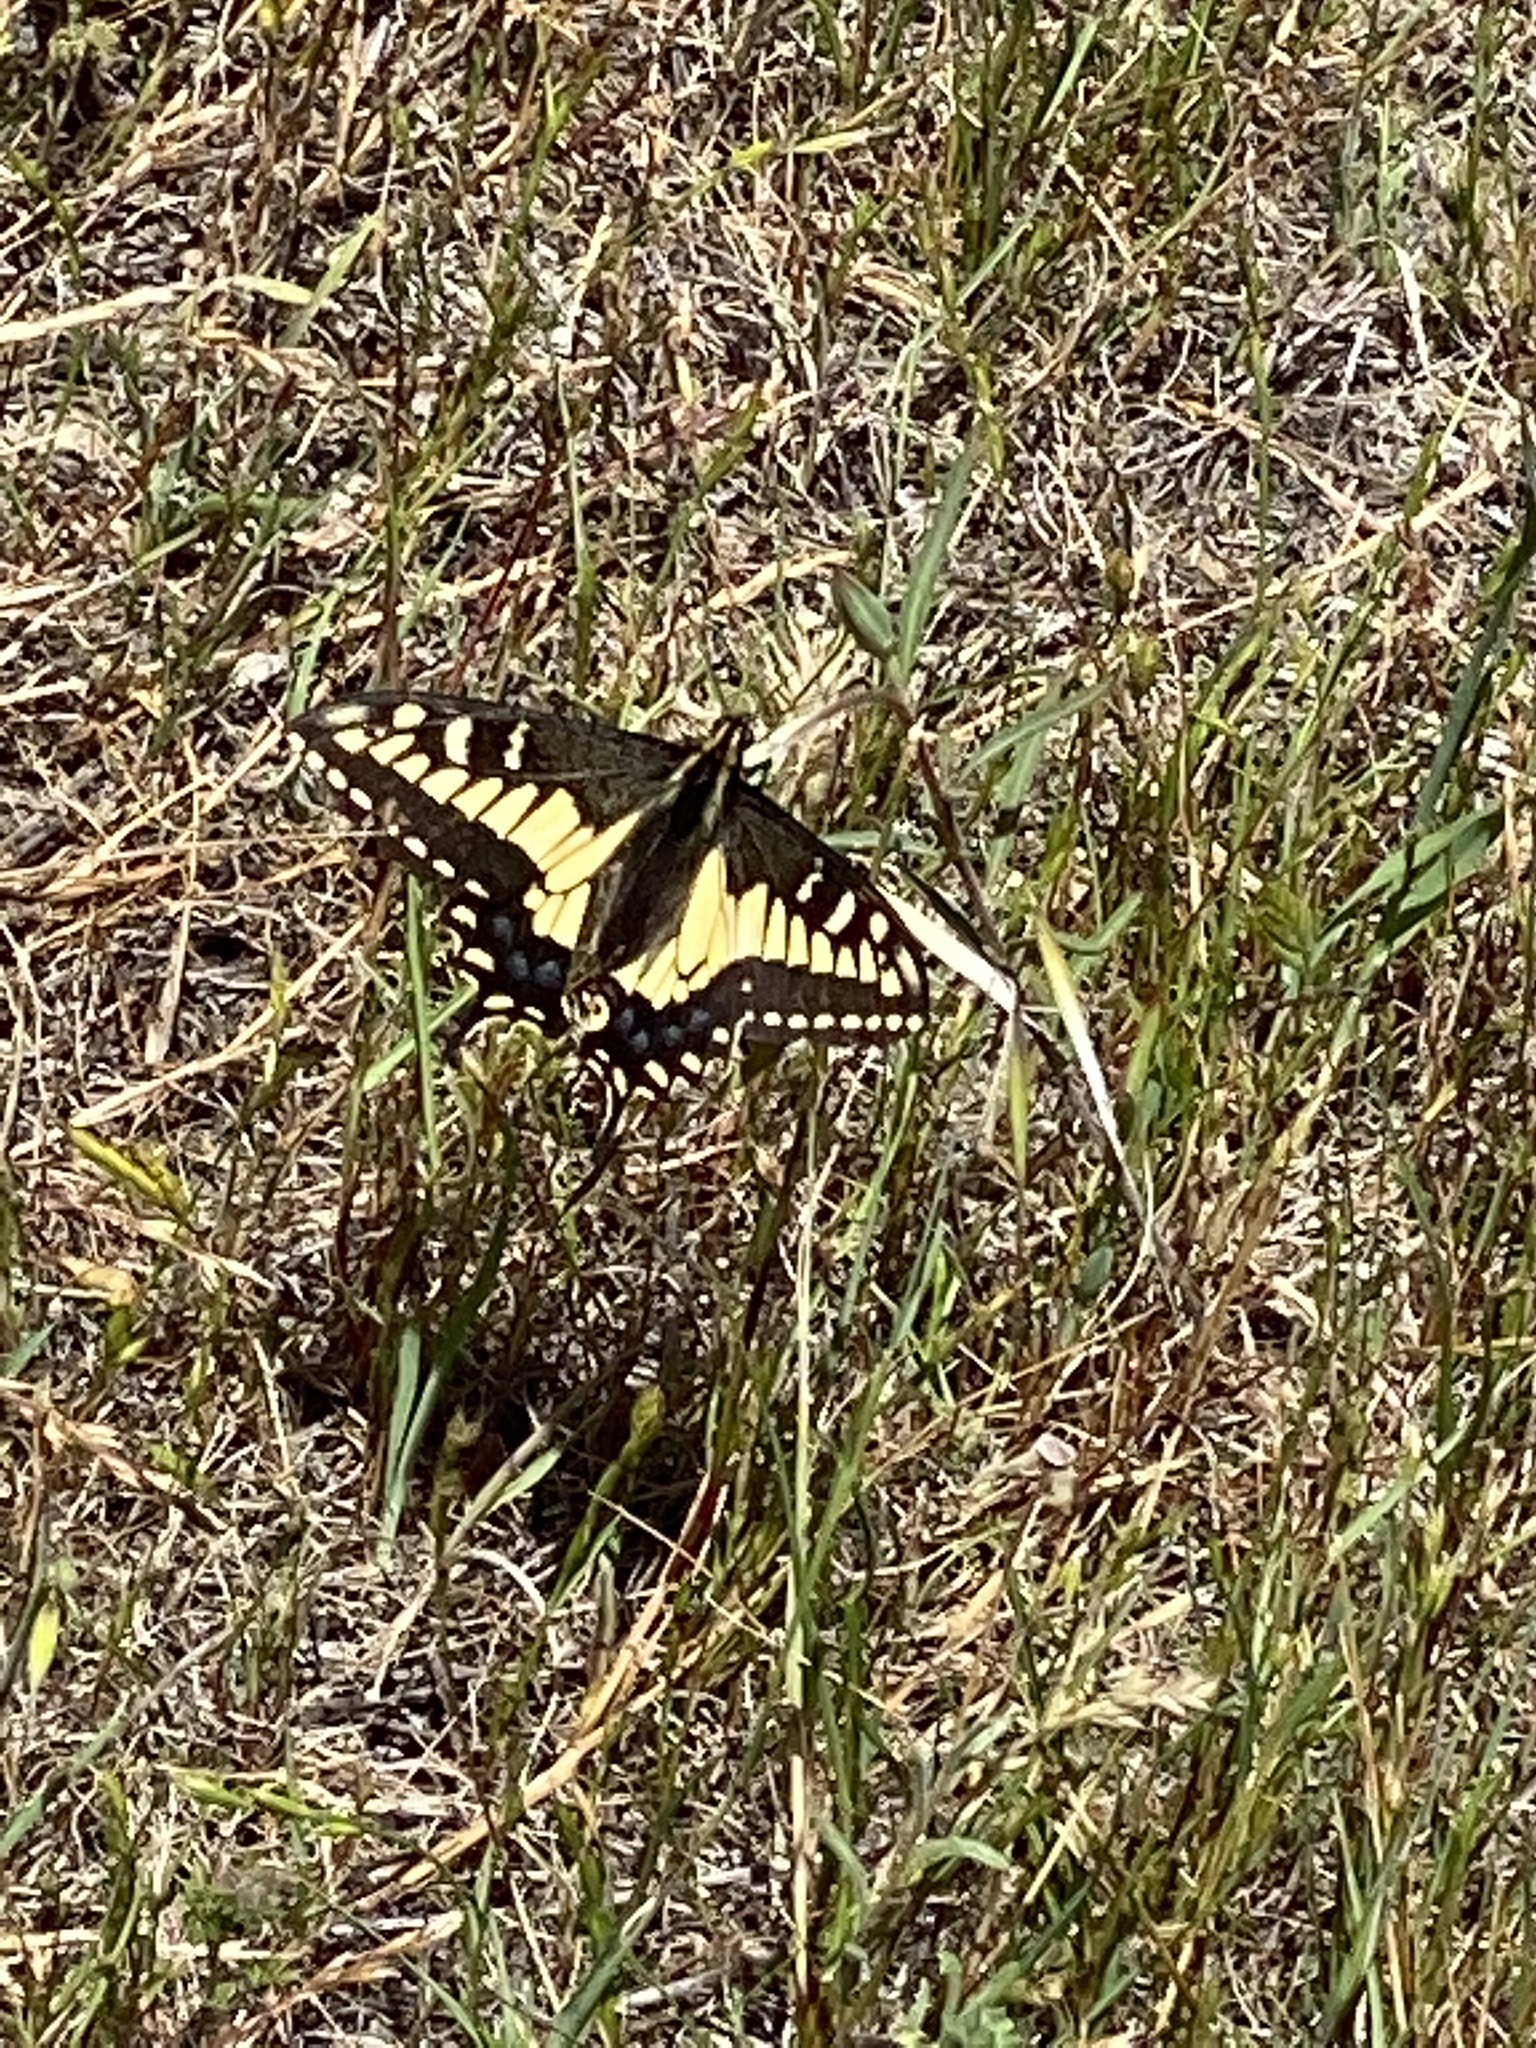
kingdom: Animalia
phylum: Arthropoda
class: Insecta
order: Lepidoptera
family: Papilionidae
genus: Papilio
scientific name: Papilio zelicaon
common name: Anise swallowtail
